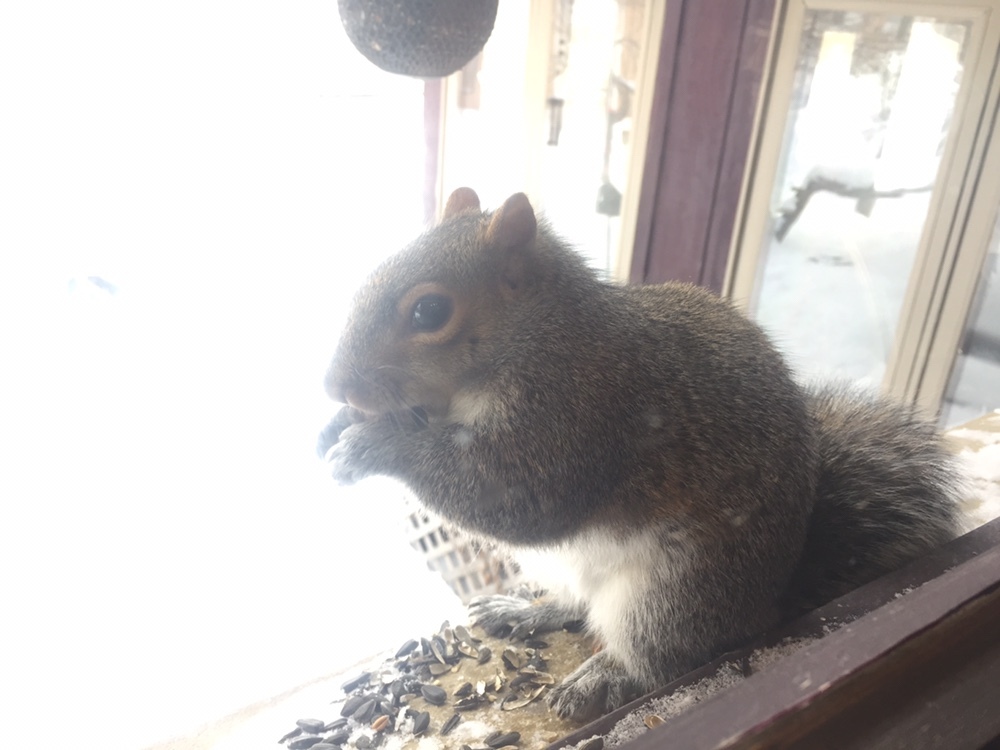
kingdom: Animalia
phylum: Chordata
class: Mammalia
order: Rodentia
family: Sciuridae
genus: Sciurus
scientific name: Sciurus carolinensis
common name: Eastern gray squirrel
